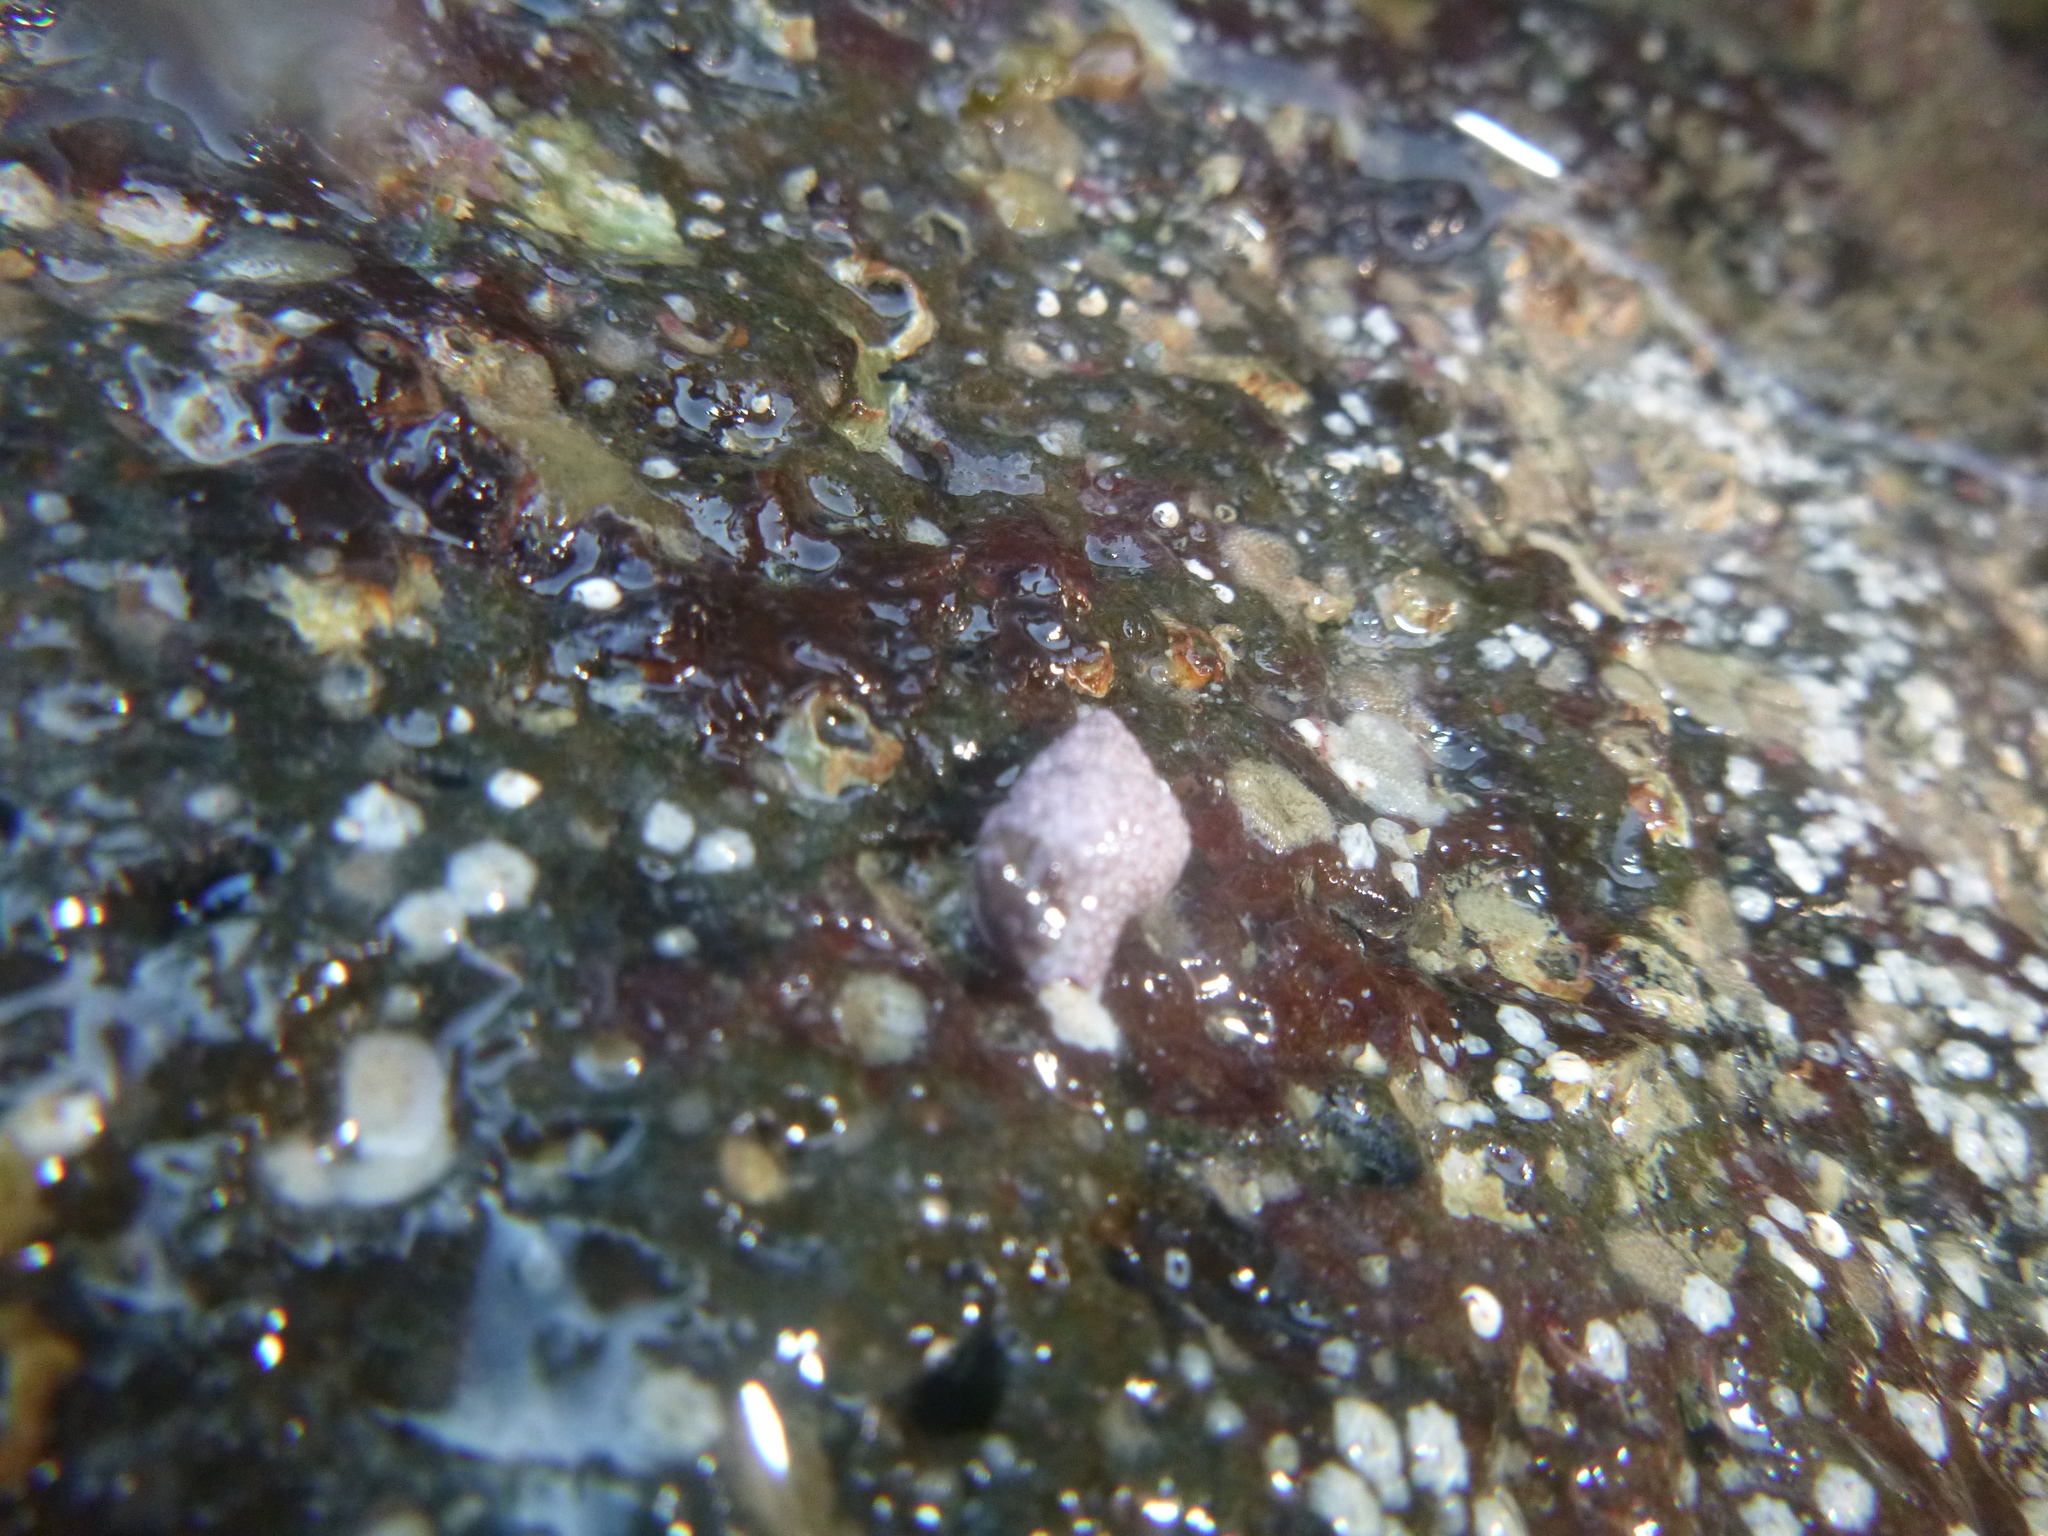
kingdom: Animalia
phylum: Mollusca
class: Gastropoda
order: Neogastropoda
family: Fasciolariidae
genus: Taron
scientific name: Taron dubius
